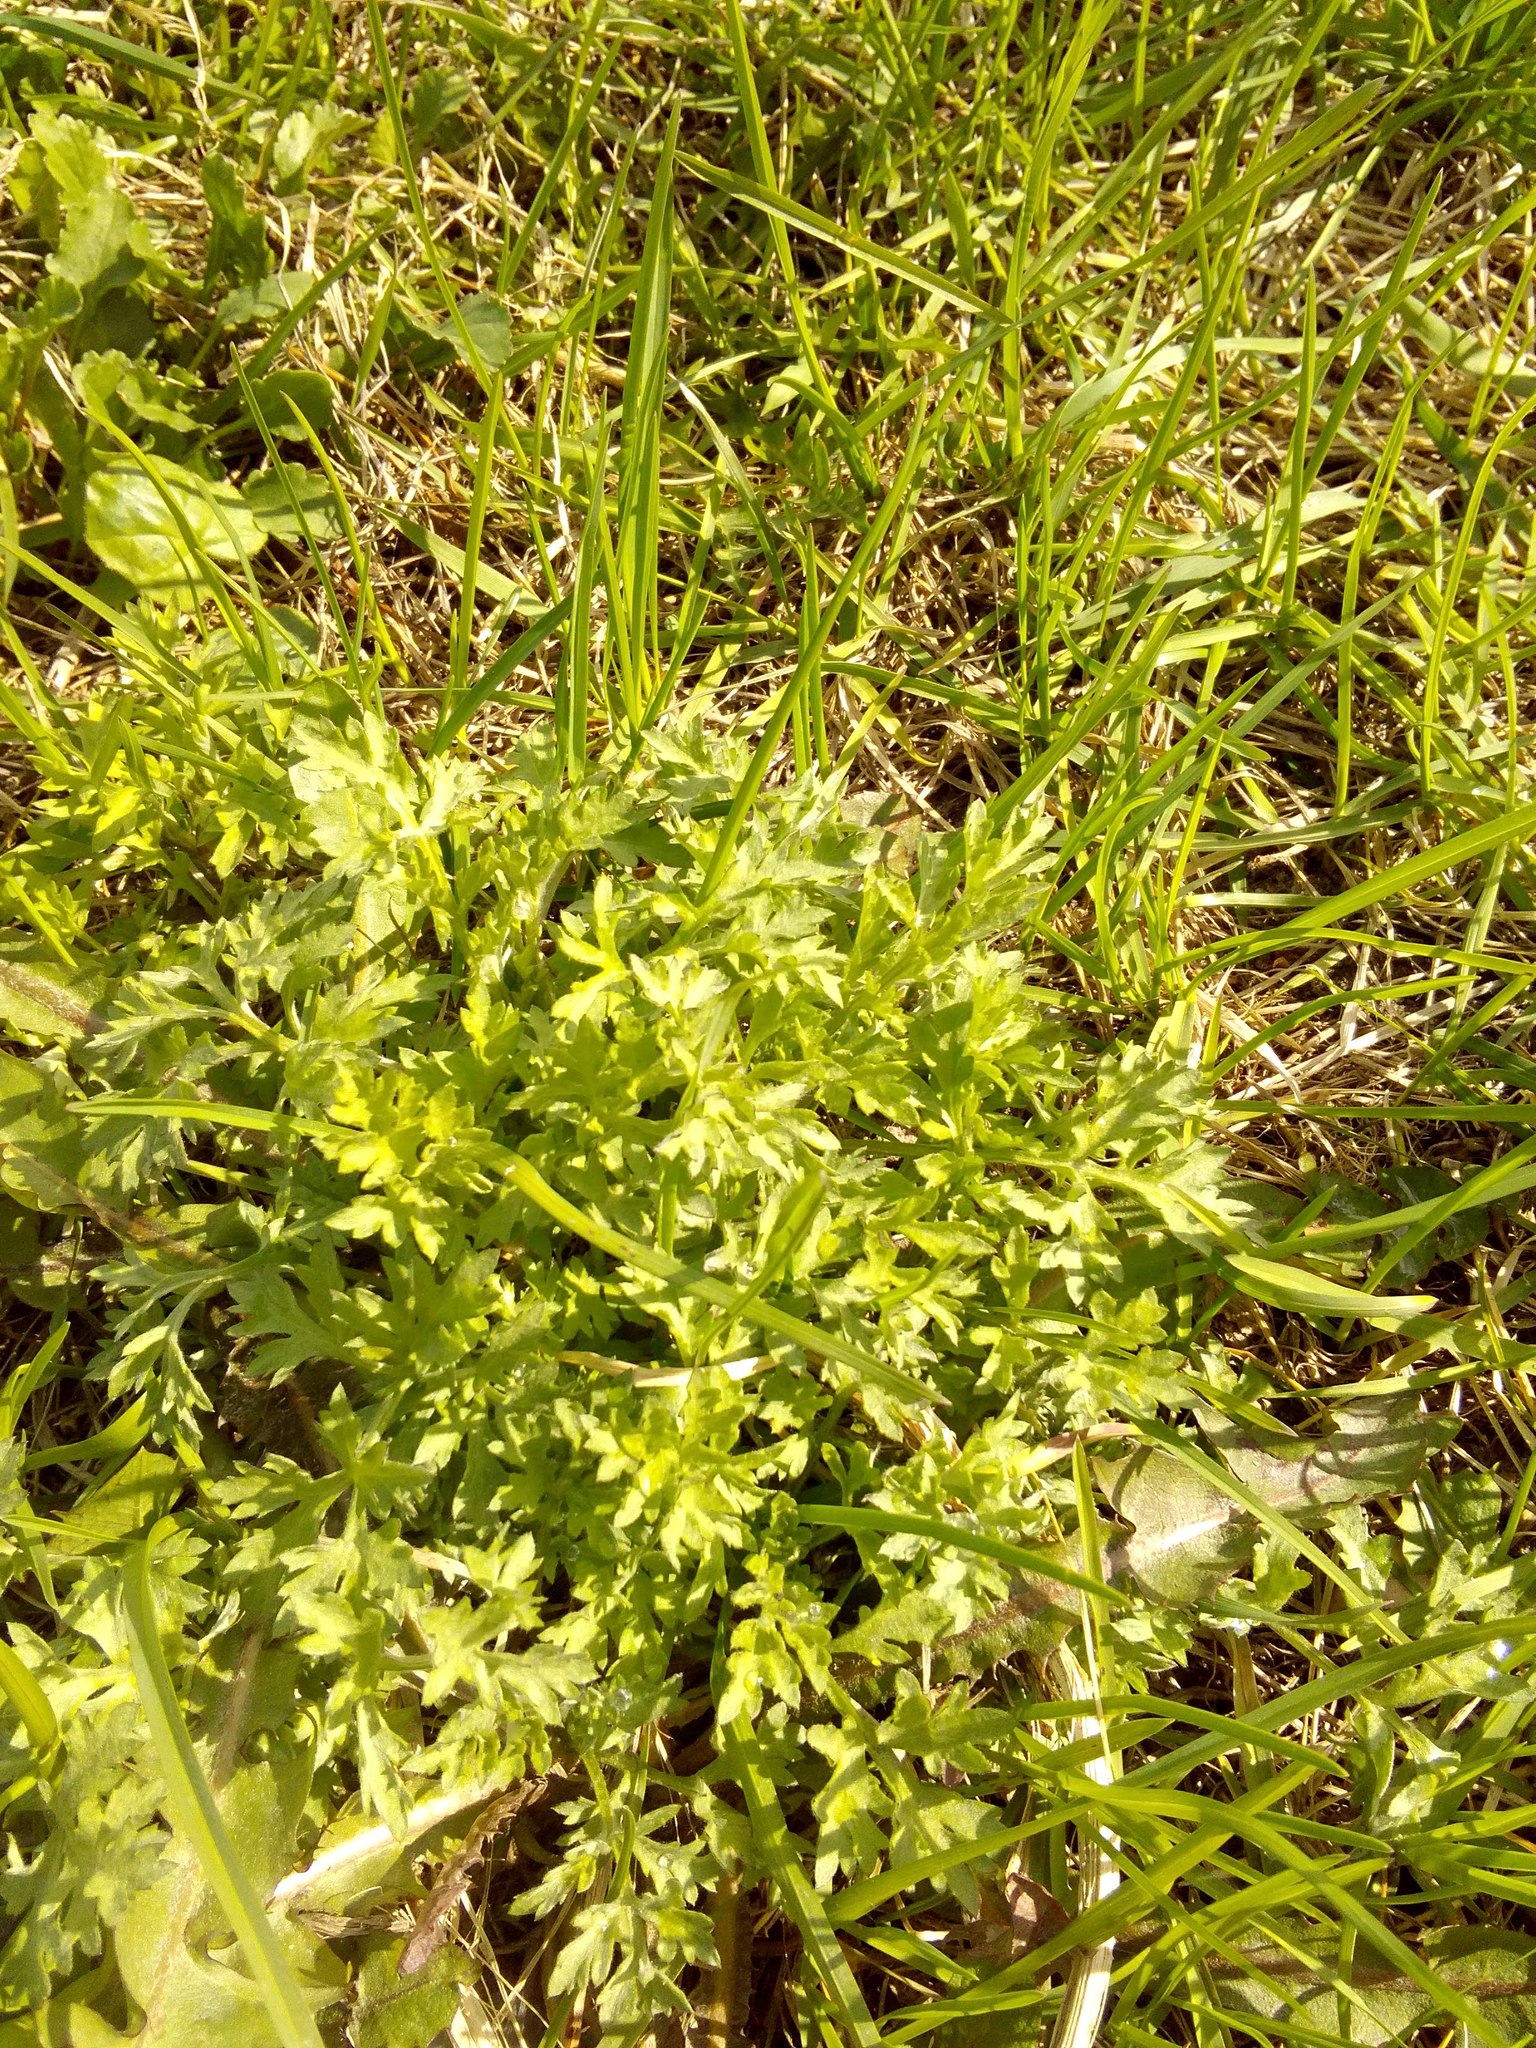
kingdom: Plantae
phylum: Tracheophyta
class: Magnoliopsida
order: Asterales
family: Asteraceae
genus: Artemisia
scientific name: Artemisia vulgaris
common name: Mugwort
